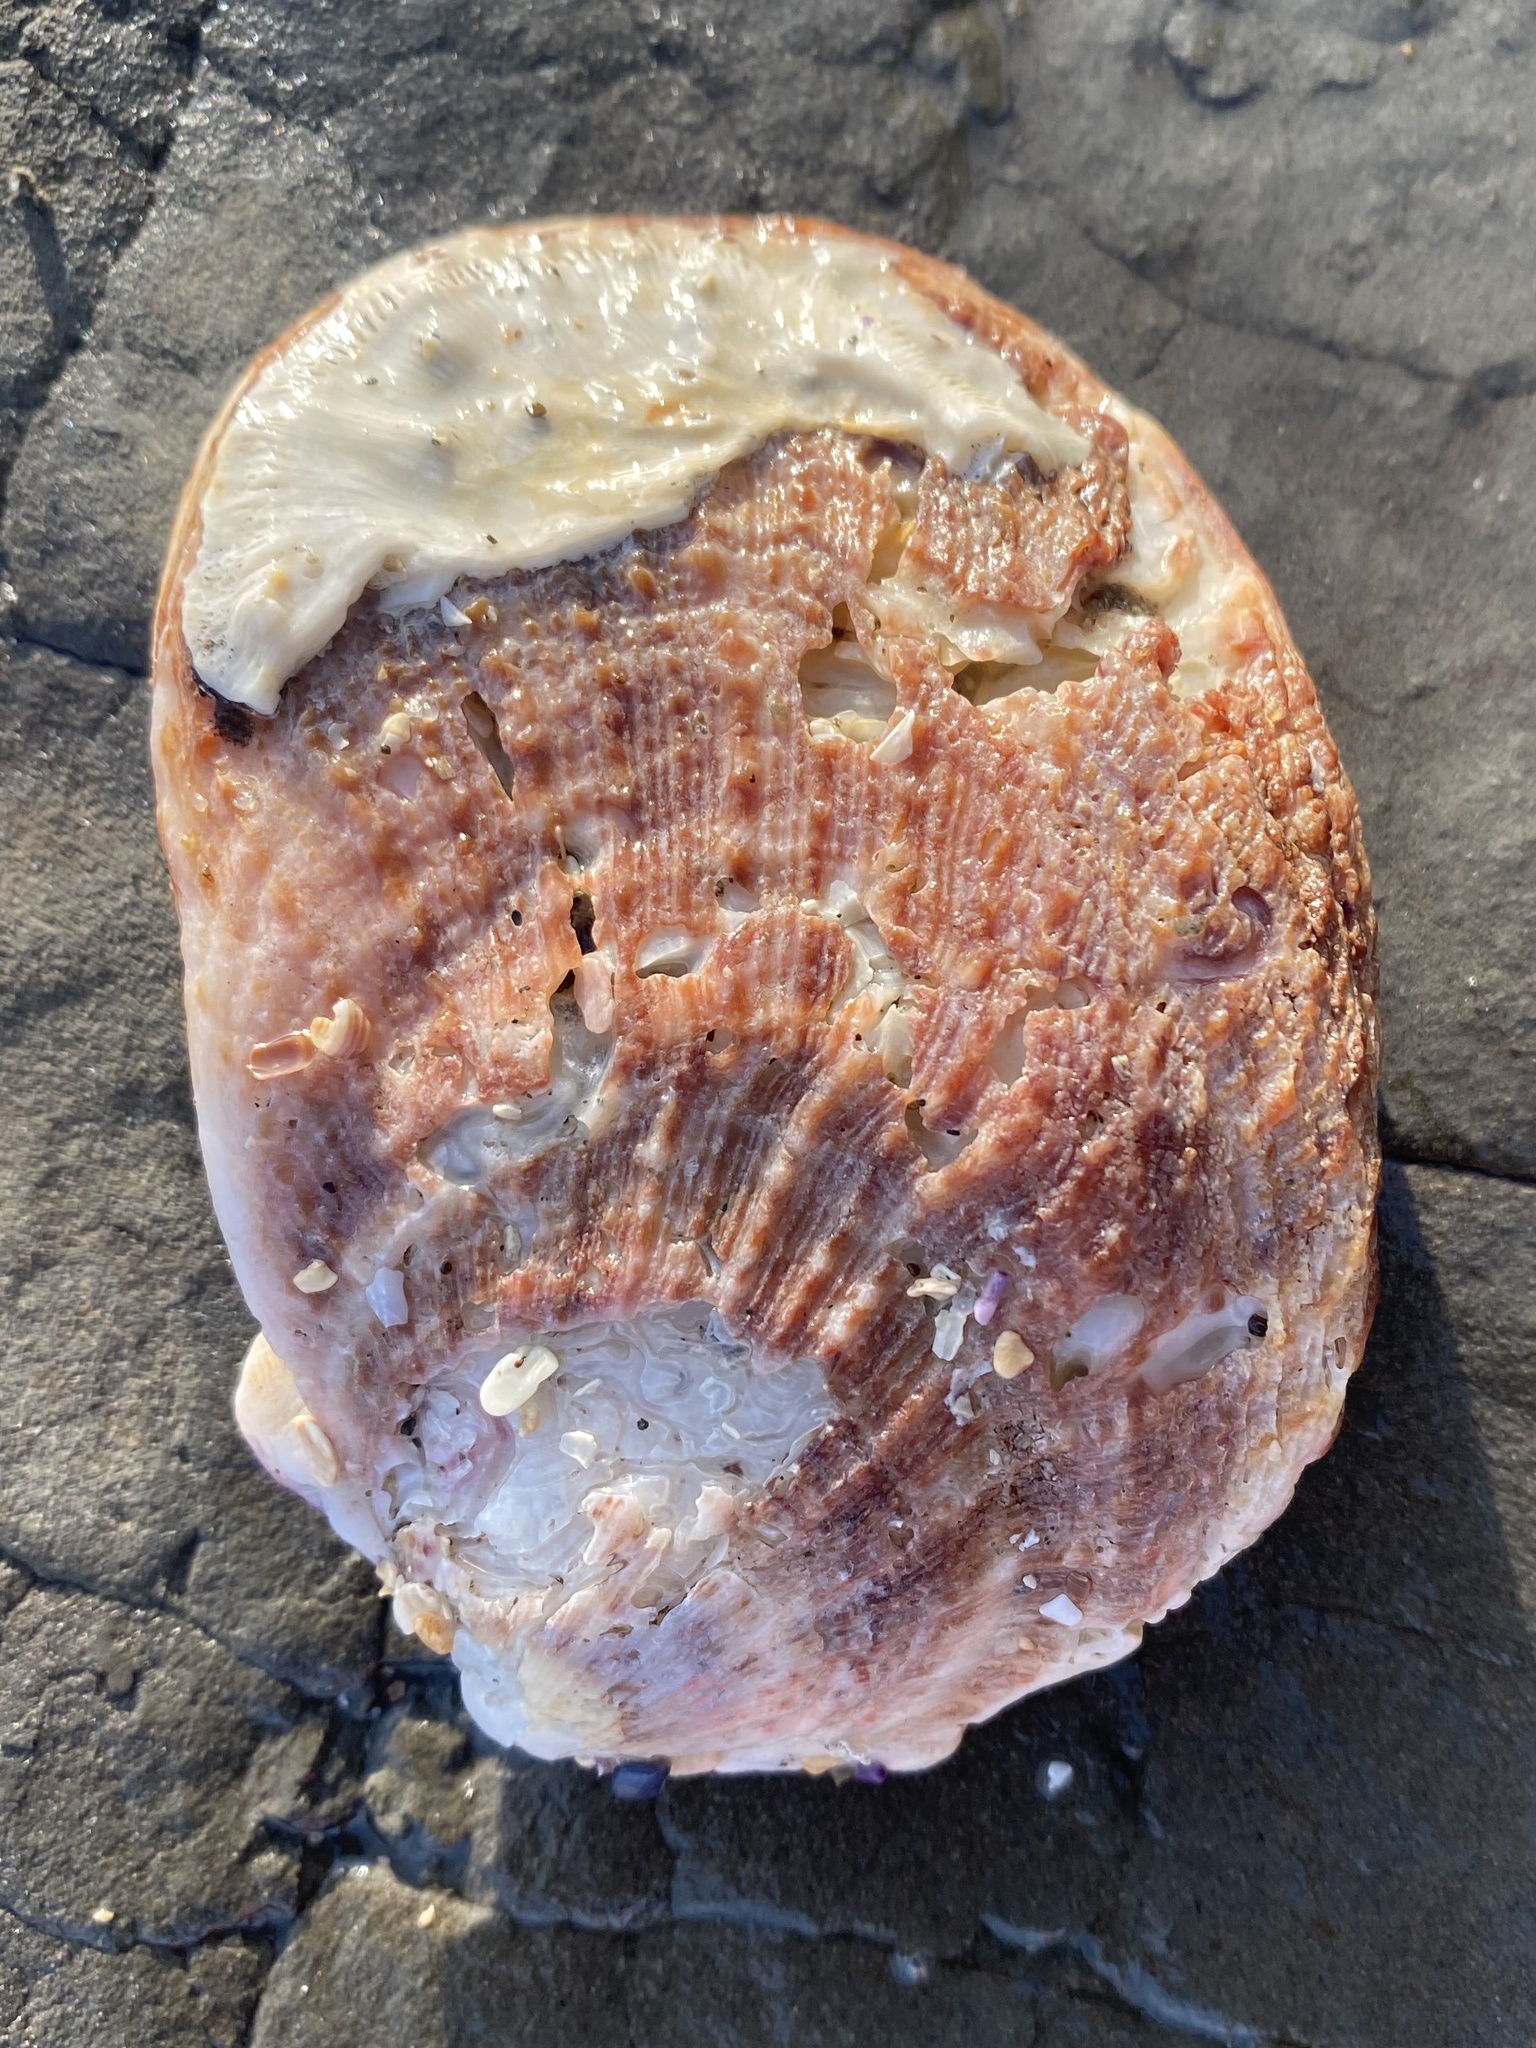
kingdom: Animalia
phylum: Mollusca
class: Bivalvia
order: Pectinida
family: Pectinidae
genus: Crassadoma
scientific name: Crassadoma gigantea
